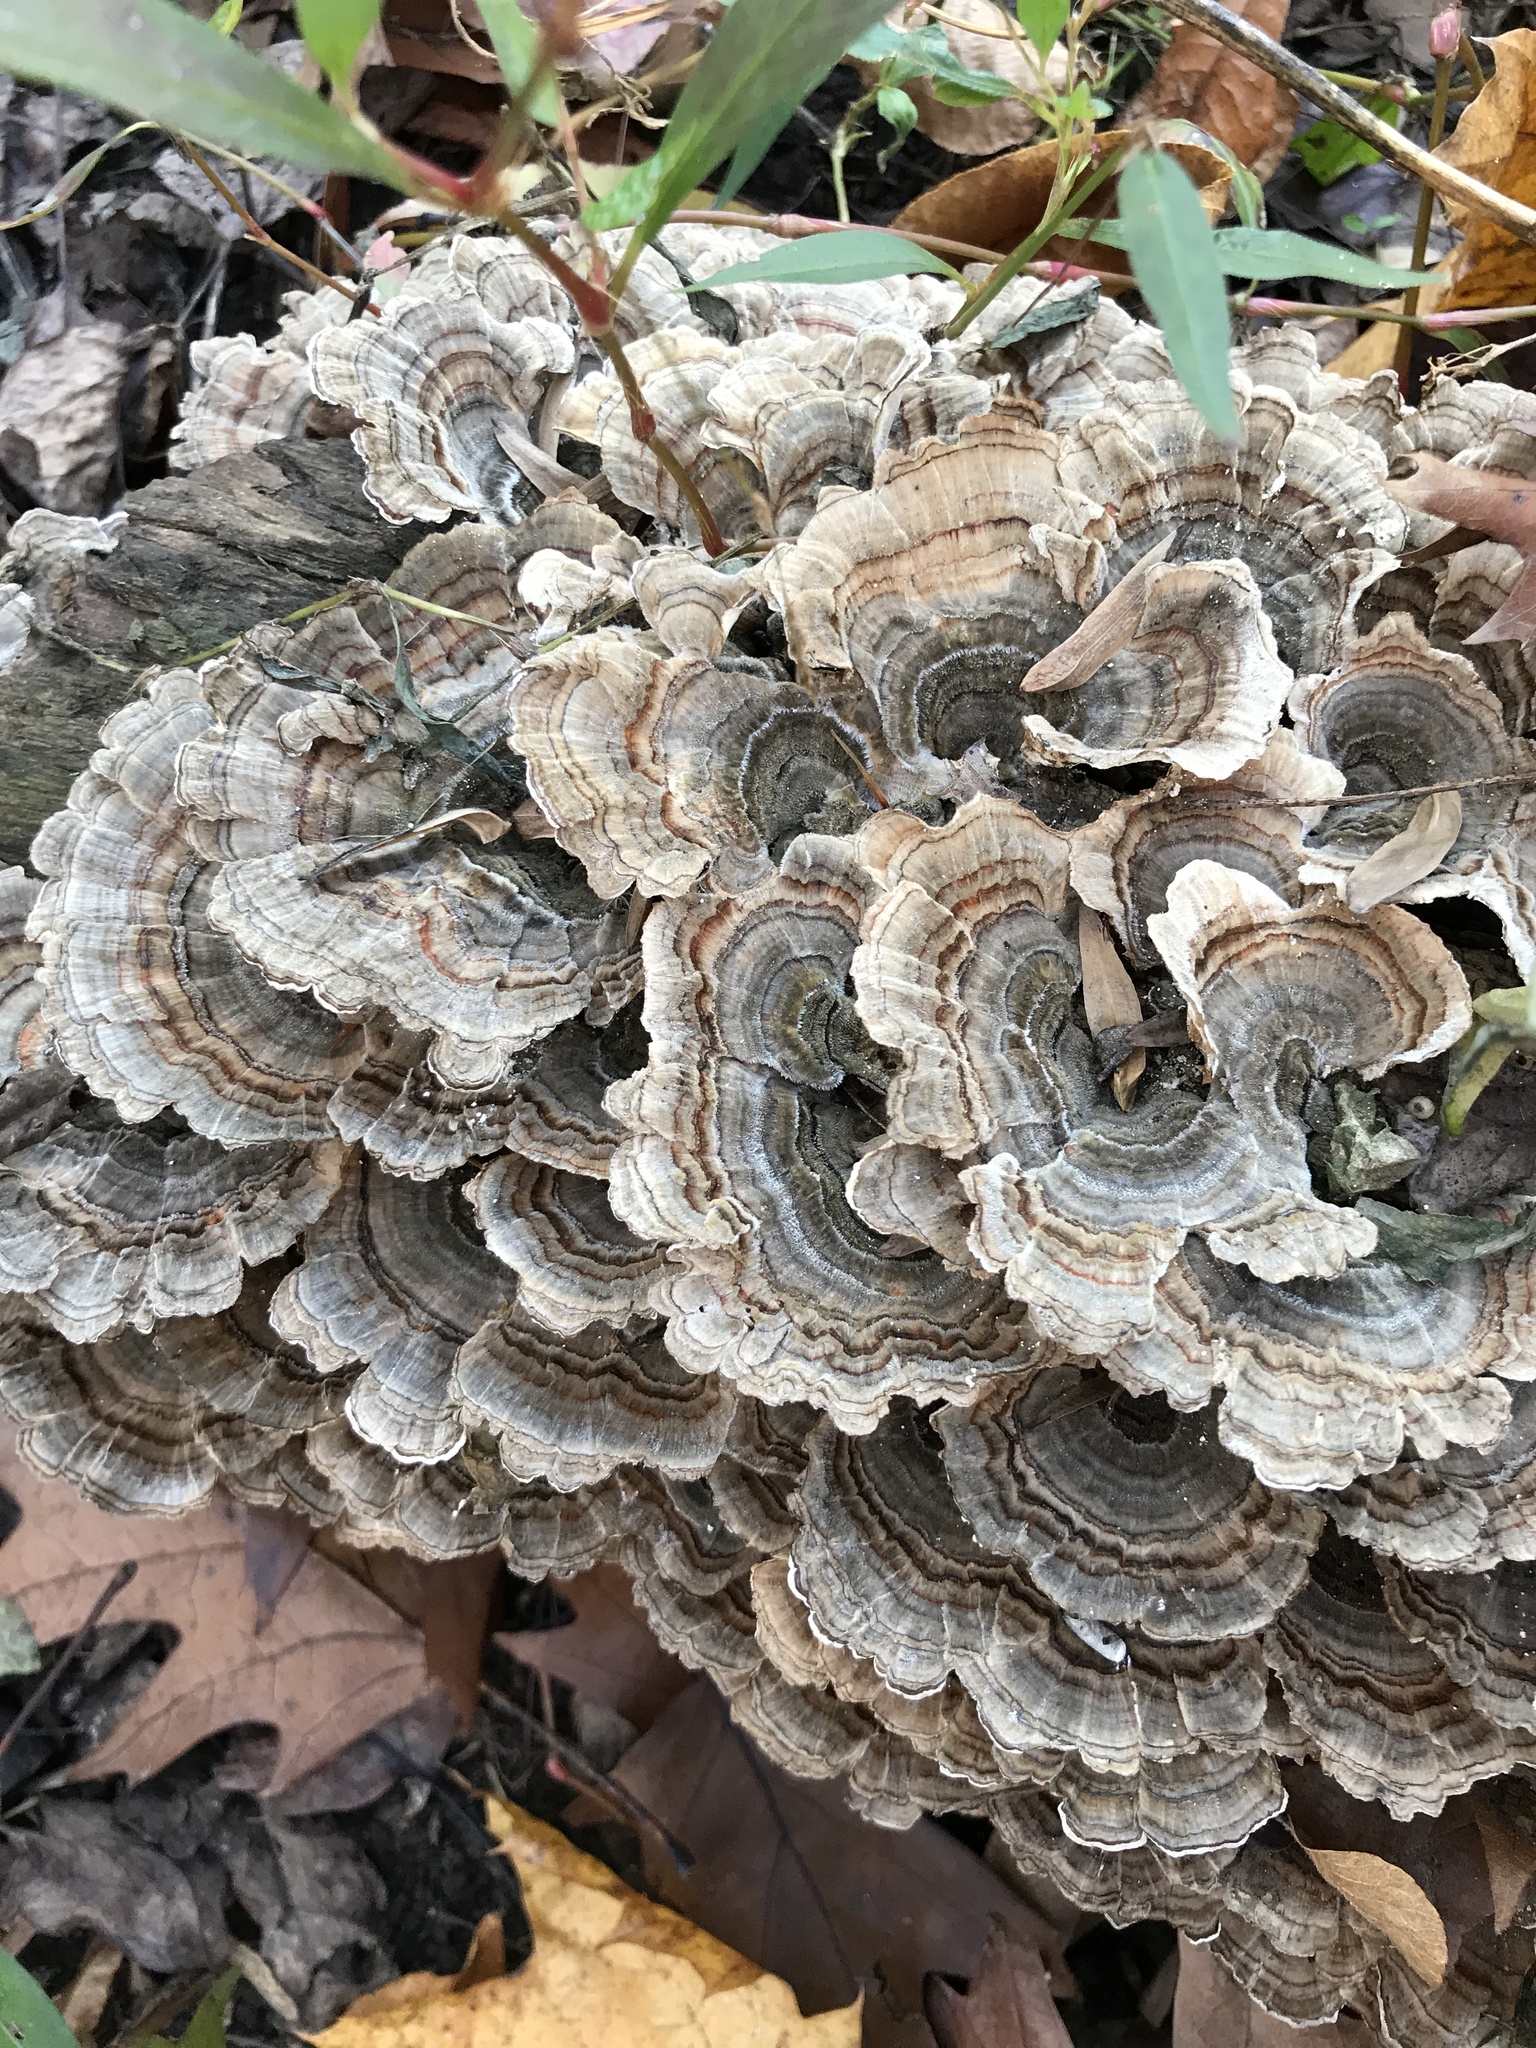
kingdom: Fungi
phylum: Basidiomycota
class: Agaricomycetes
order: Polyporales
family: Polyporaceae
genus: Trametes
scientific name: Trametes versicolor
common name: Turkeytail
